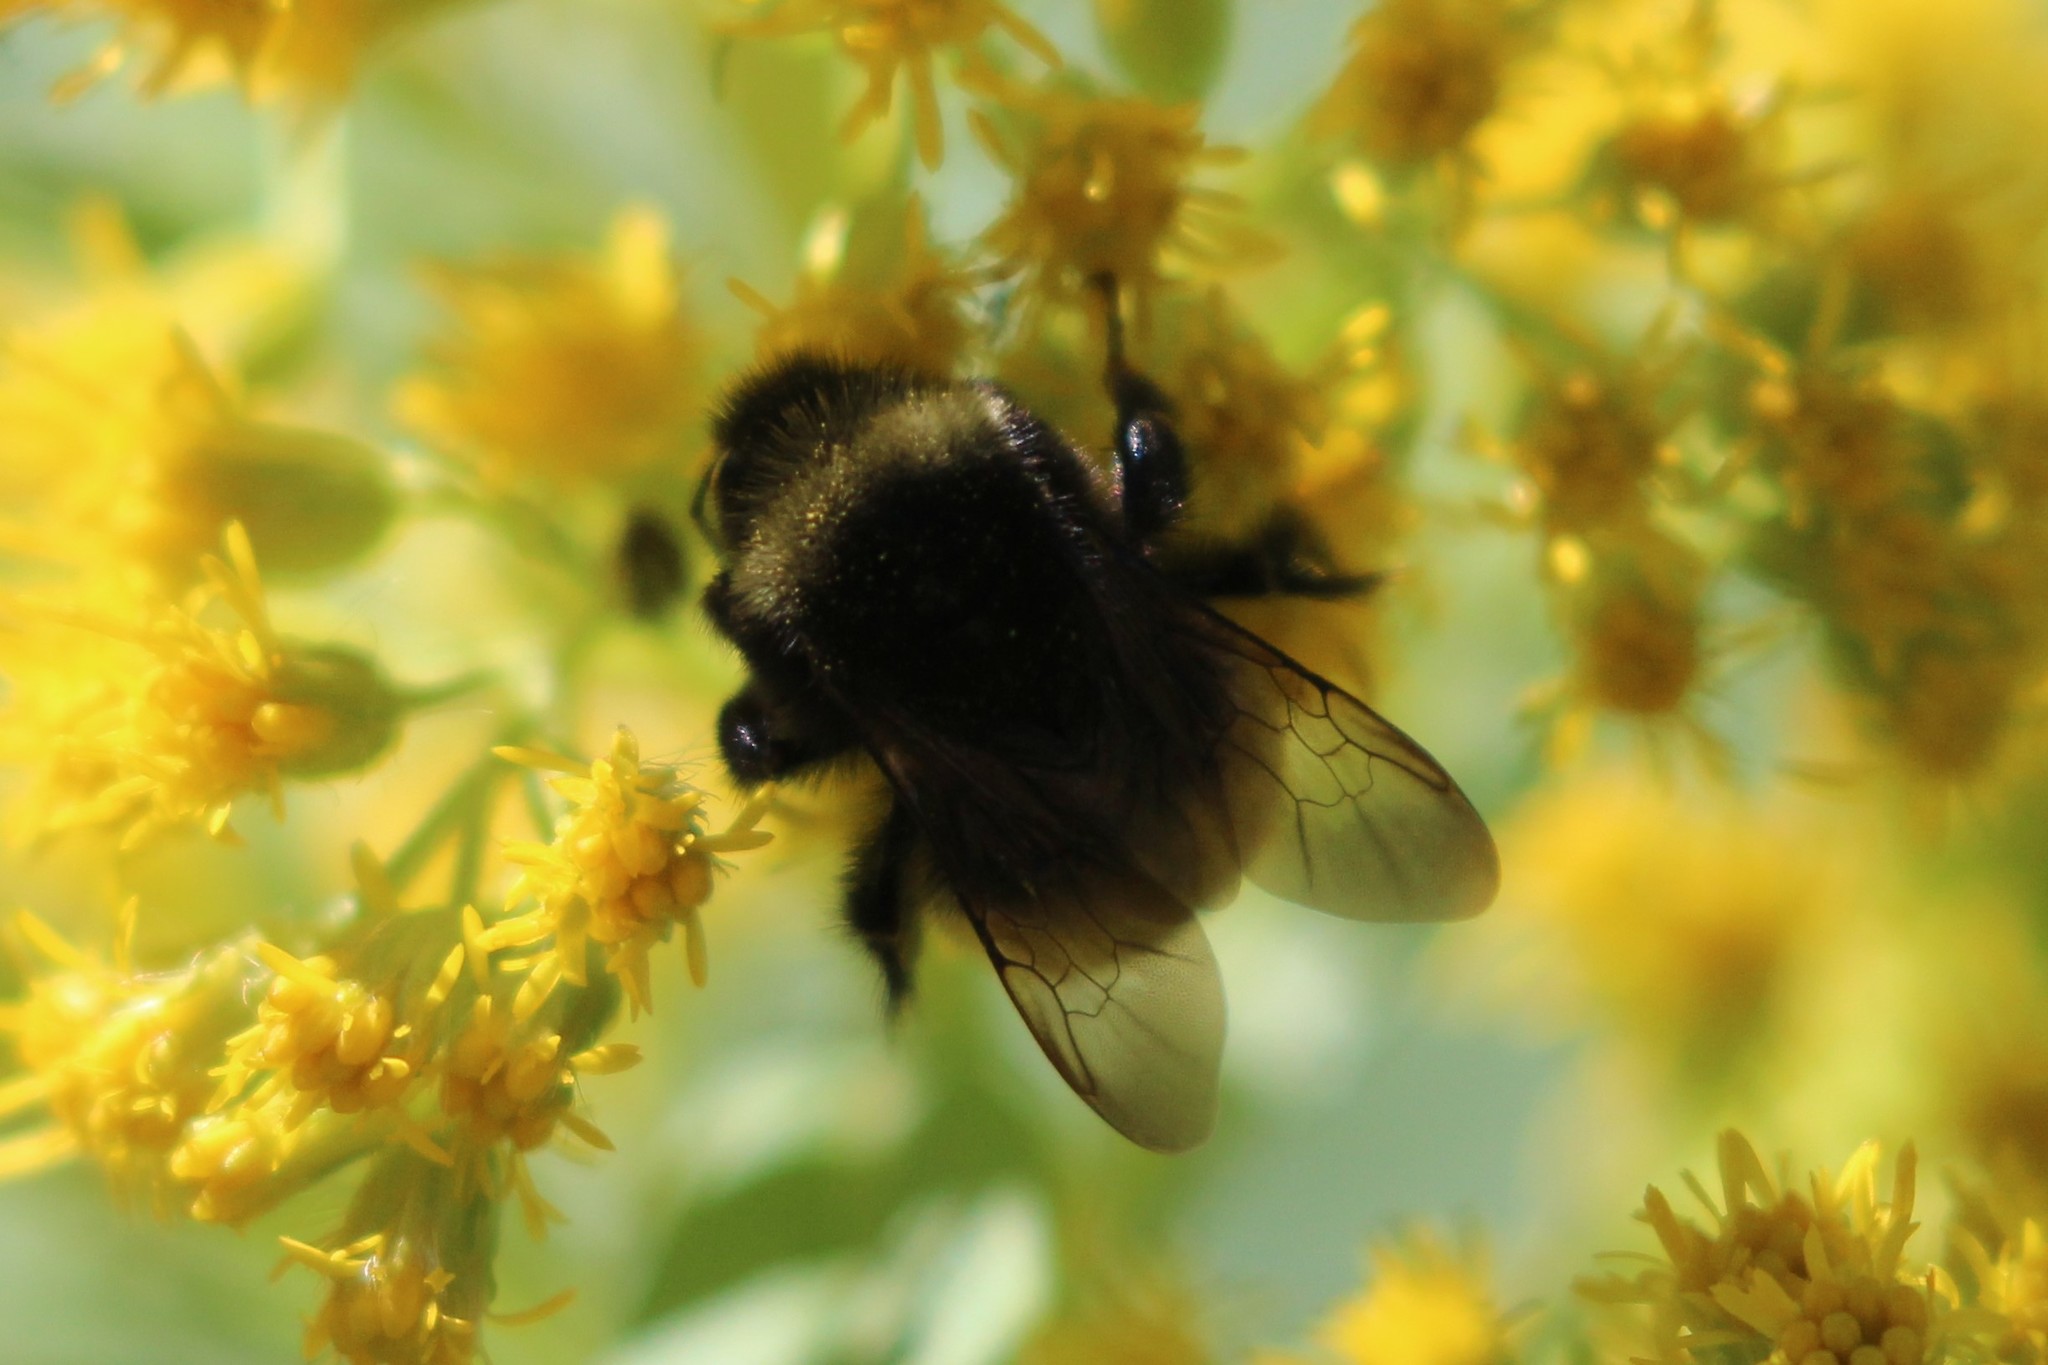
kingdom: Animalia
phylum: Arthropoda
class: Insecta
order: Hymenoptera
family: Apidae
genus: Bombus
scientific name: Bombus terricola
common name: Yellow-banded bumble bee
